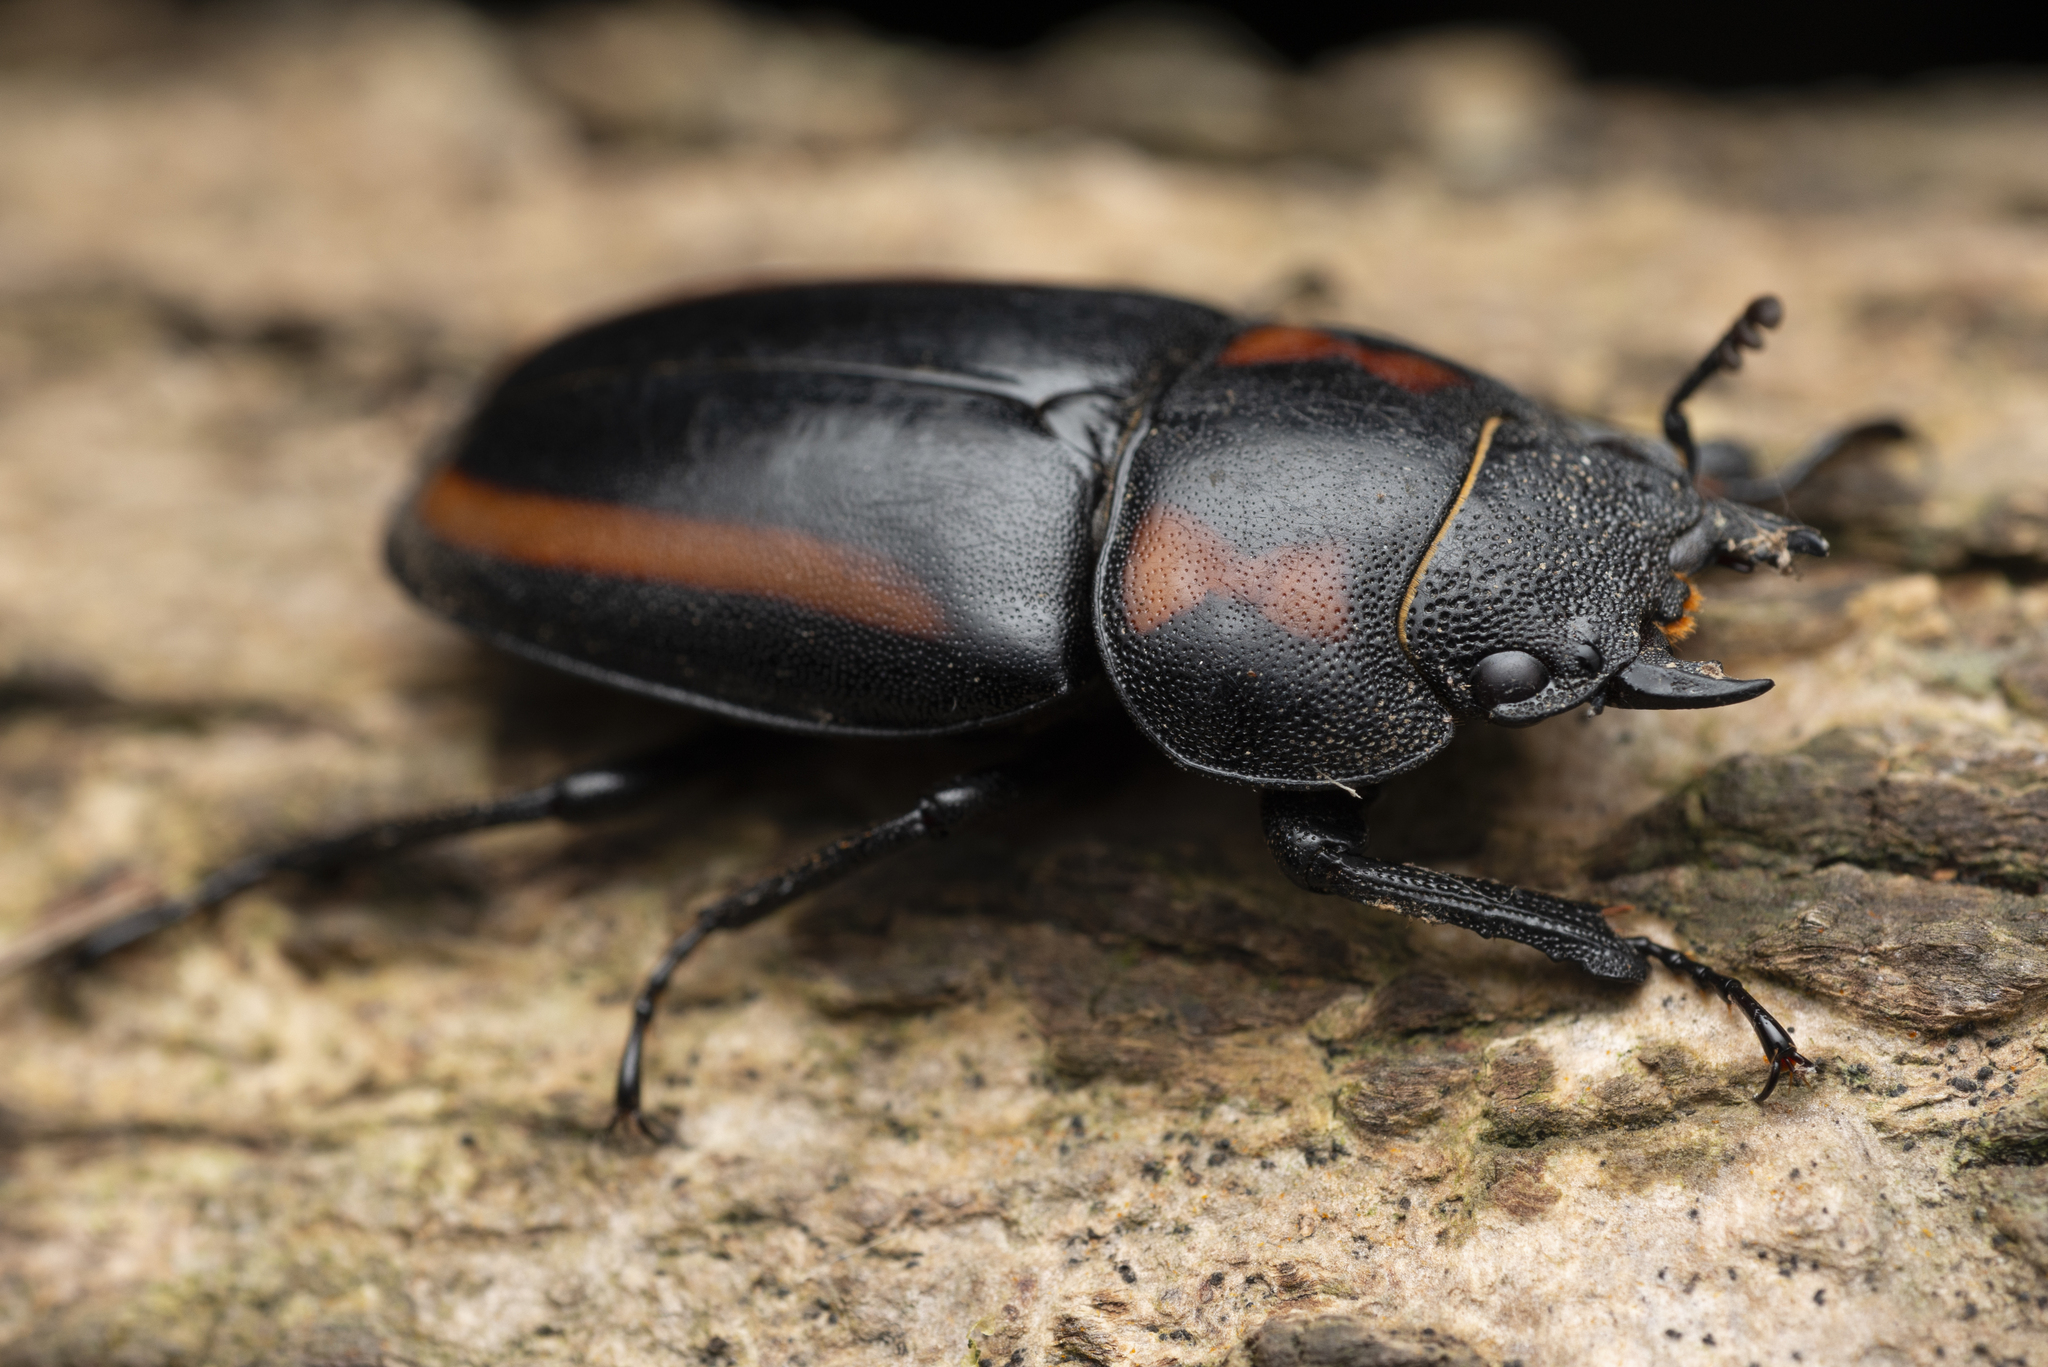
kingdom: Animalia
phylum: Arthropoda
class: Insecta
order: Coleoptera
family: Lucanidae
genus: Prosopocoilus
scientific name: Prosopocoilus biplagiatus
